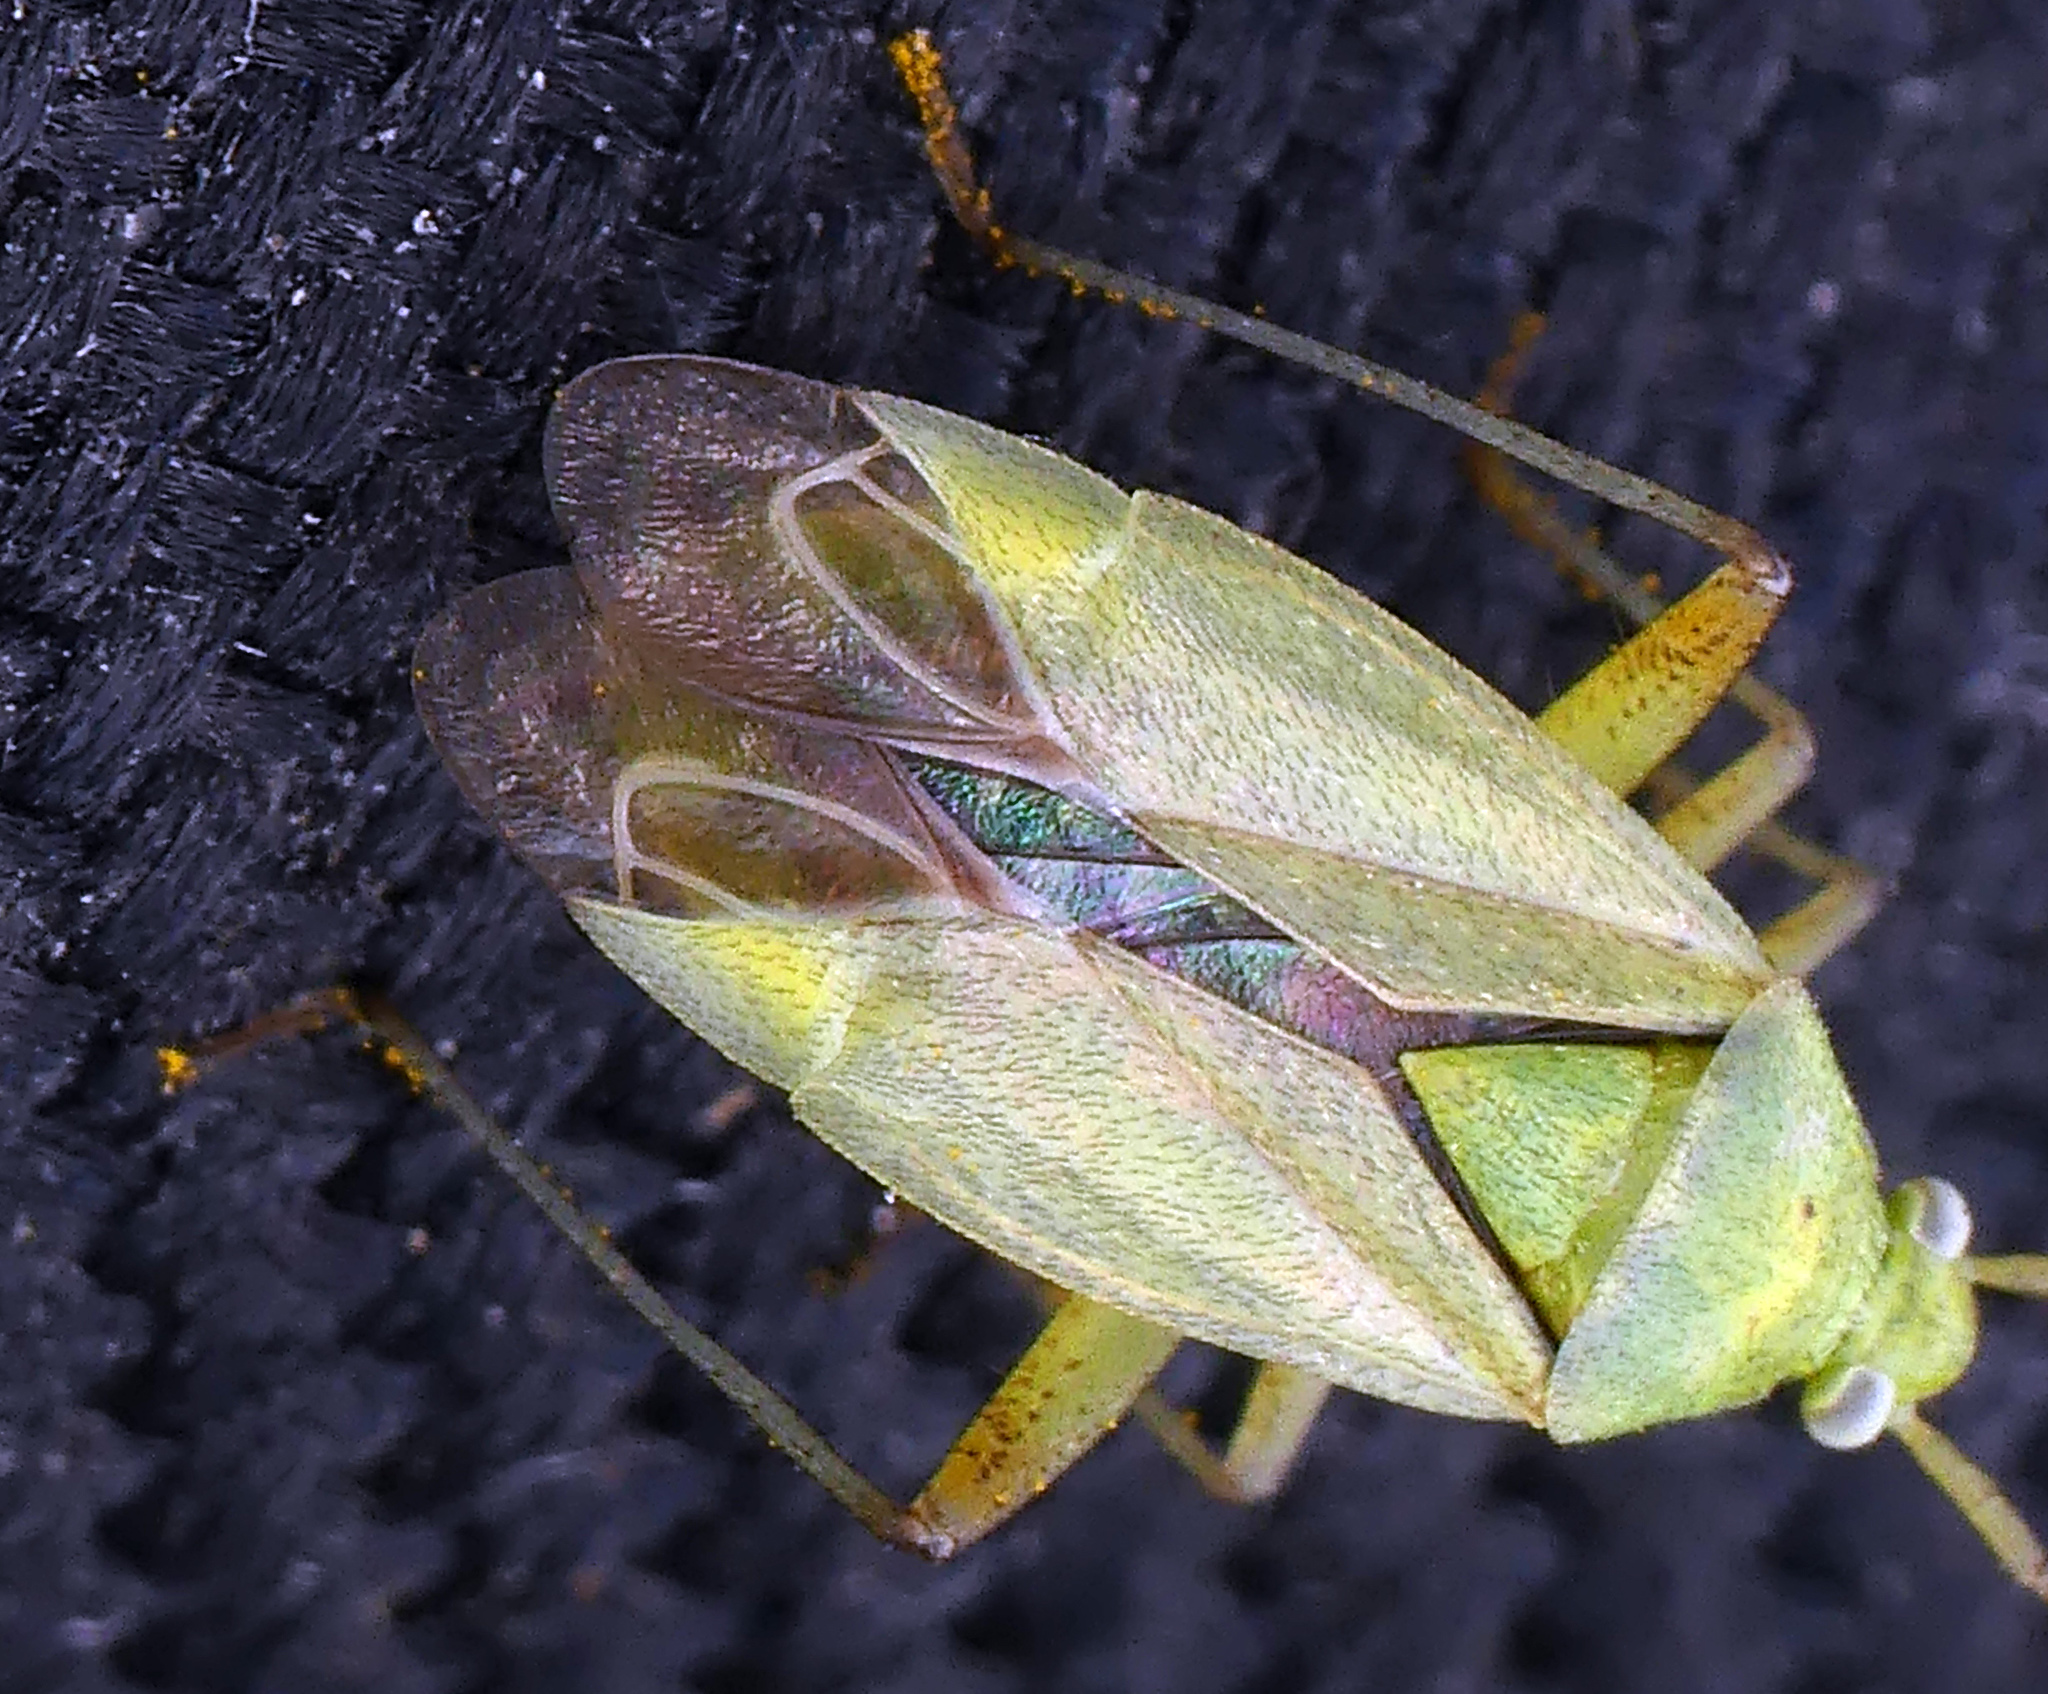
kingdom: Animalia
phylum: Arthropoda
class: Insecta
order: Hemiptera
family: Miridae
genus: Closterotomus
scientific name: Closterotomus norvegicus
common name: Plant bug
